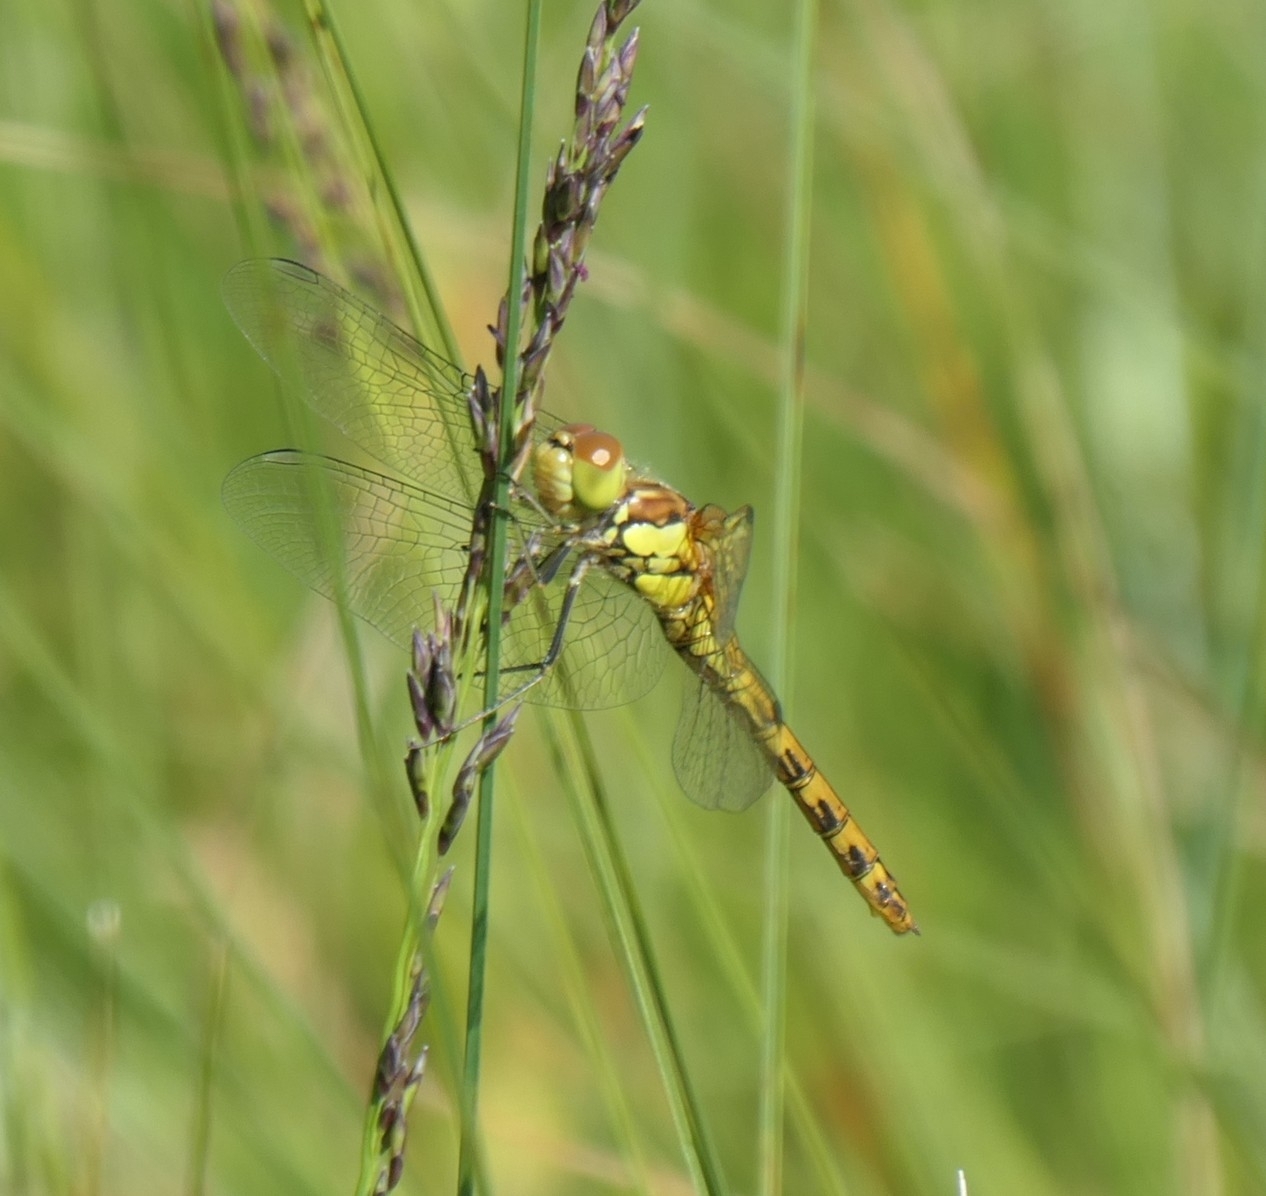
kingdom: Animalia
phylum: Arthropoda
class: Insecta
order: Odonata
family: Libellulidae
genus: Sympetrum
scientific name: Sympetrum striolatum
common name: Common darter
